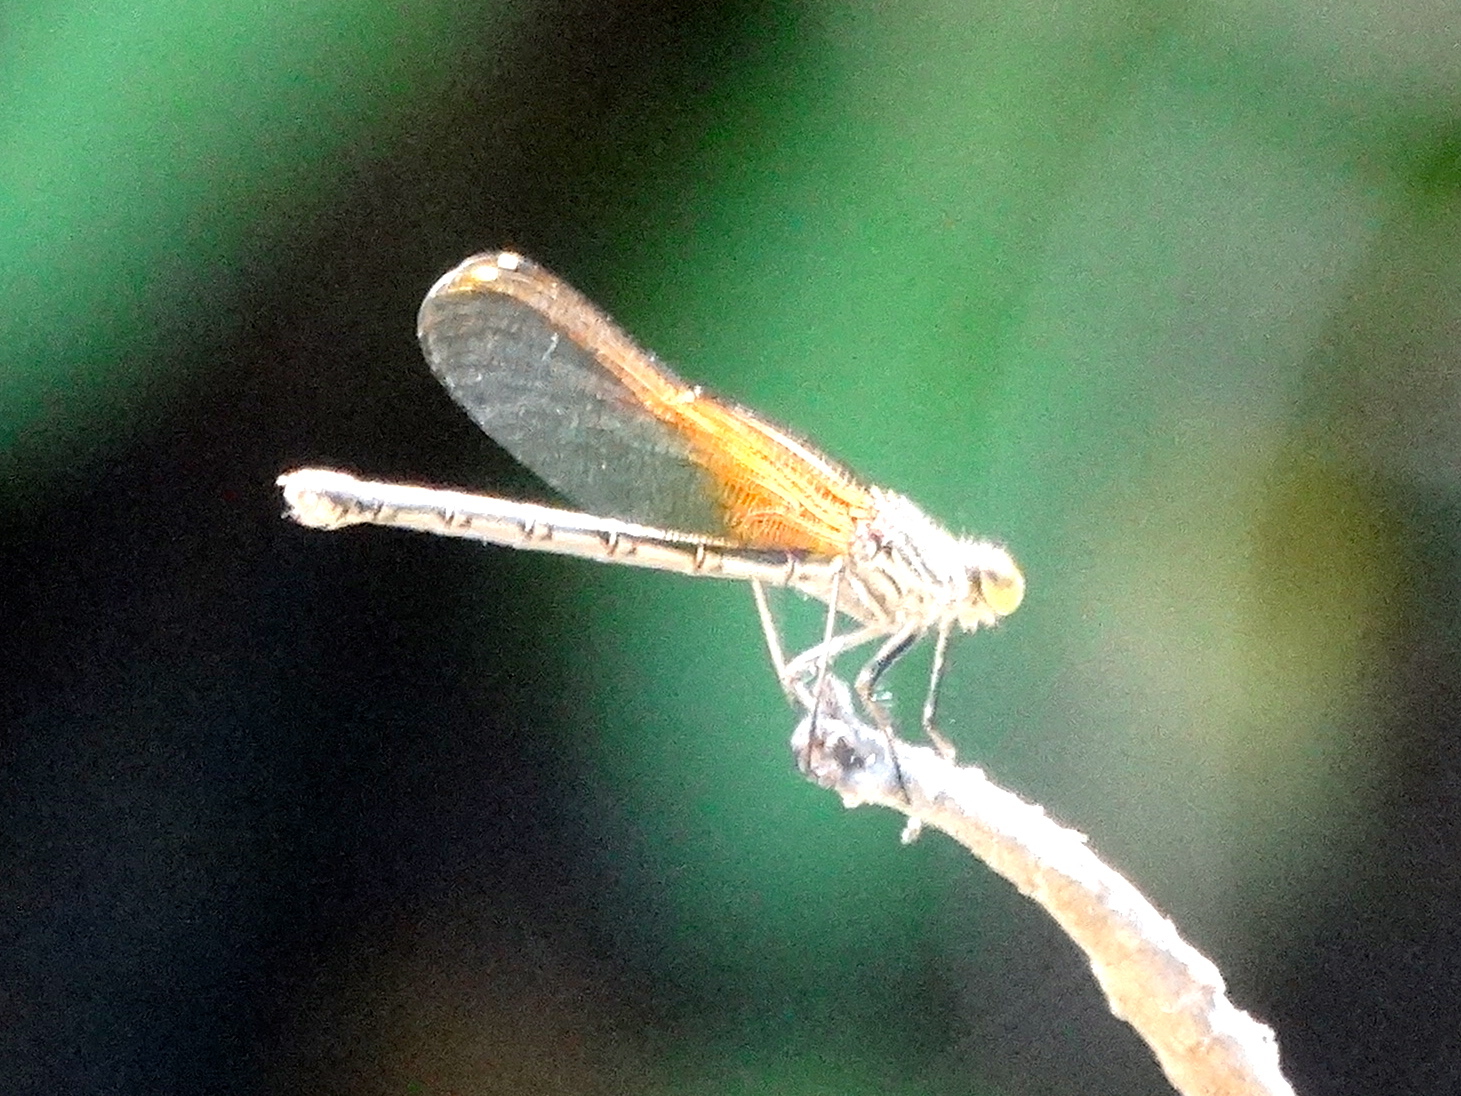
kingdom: Animalia
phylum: Arthropoda
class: Insecta
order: Odonata
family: Calopterygidae
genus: Hetaerina
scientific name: Hetaerina americana
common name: American rubyspot
